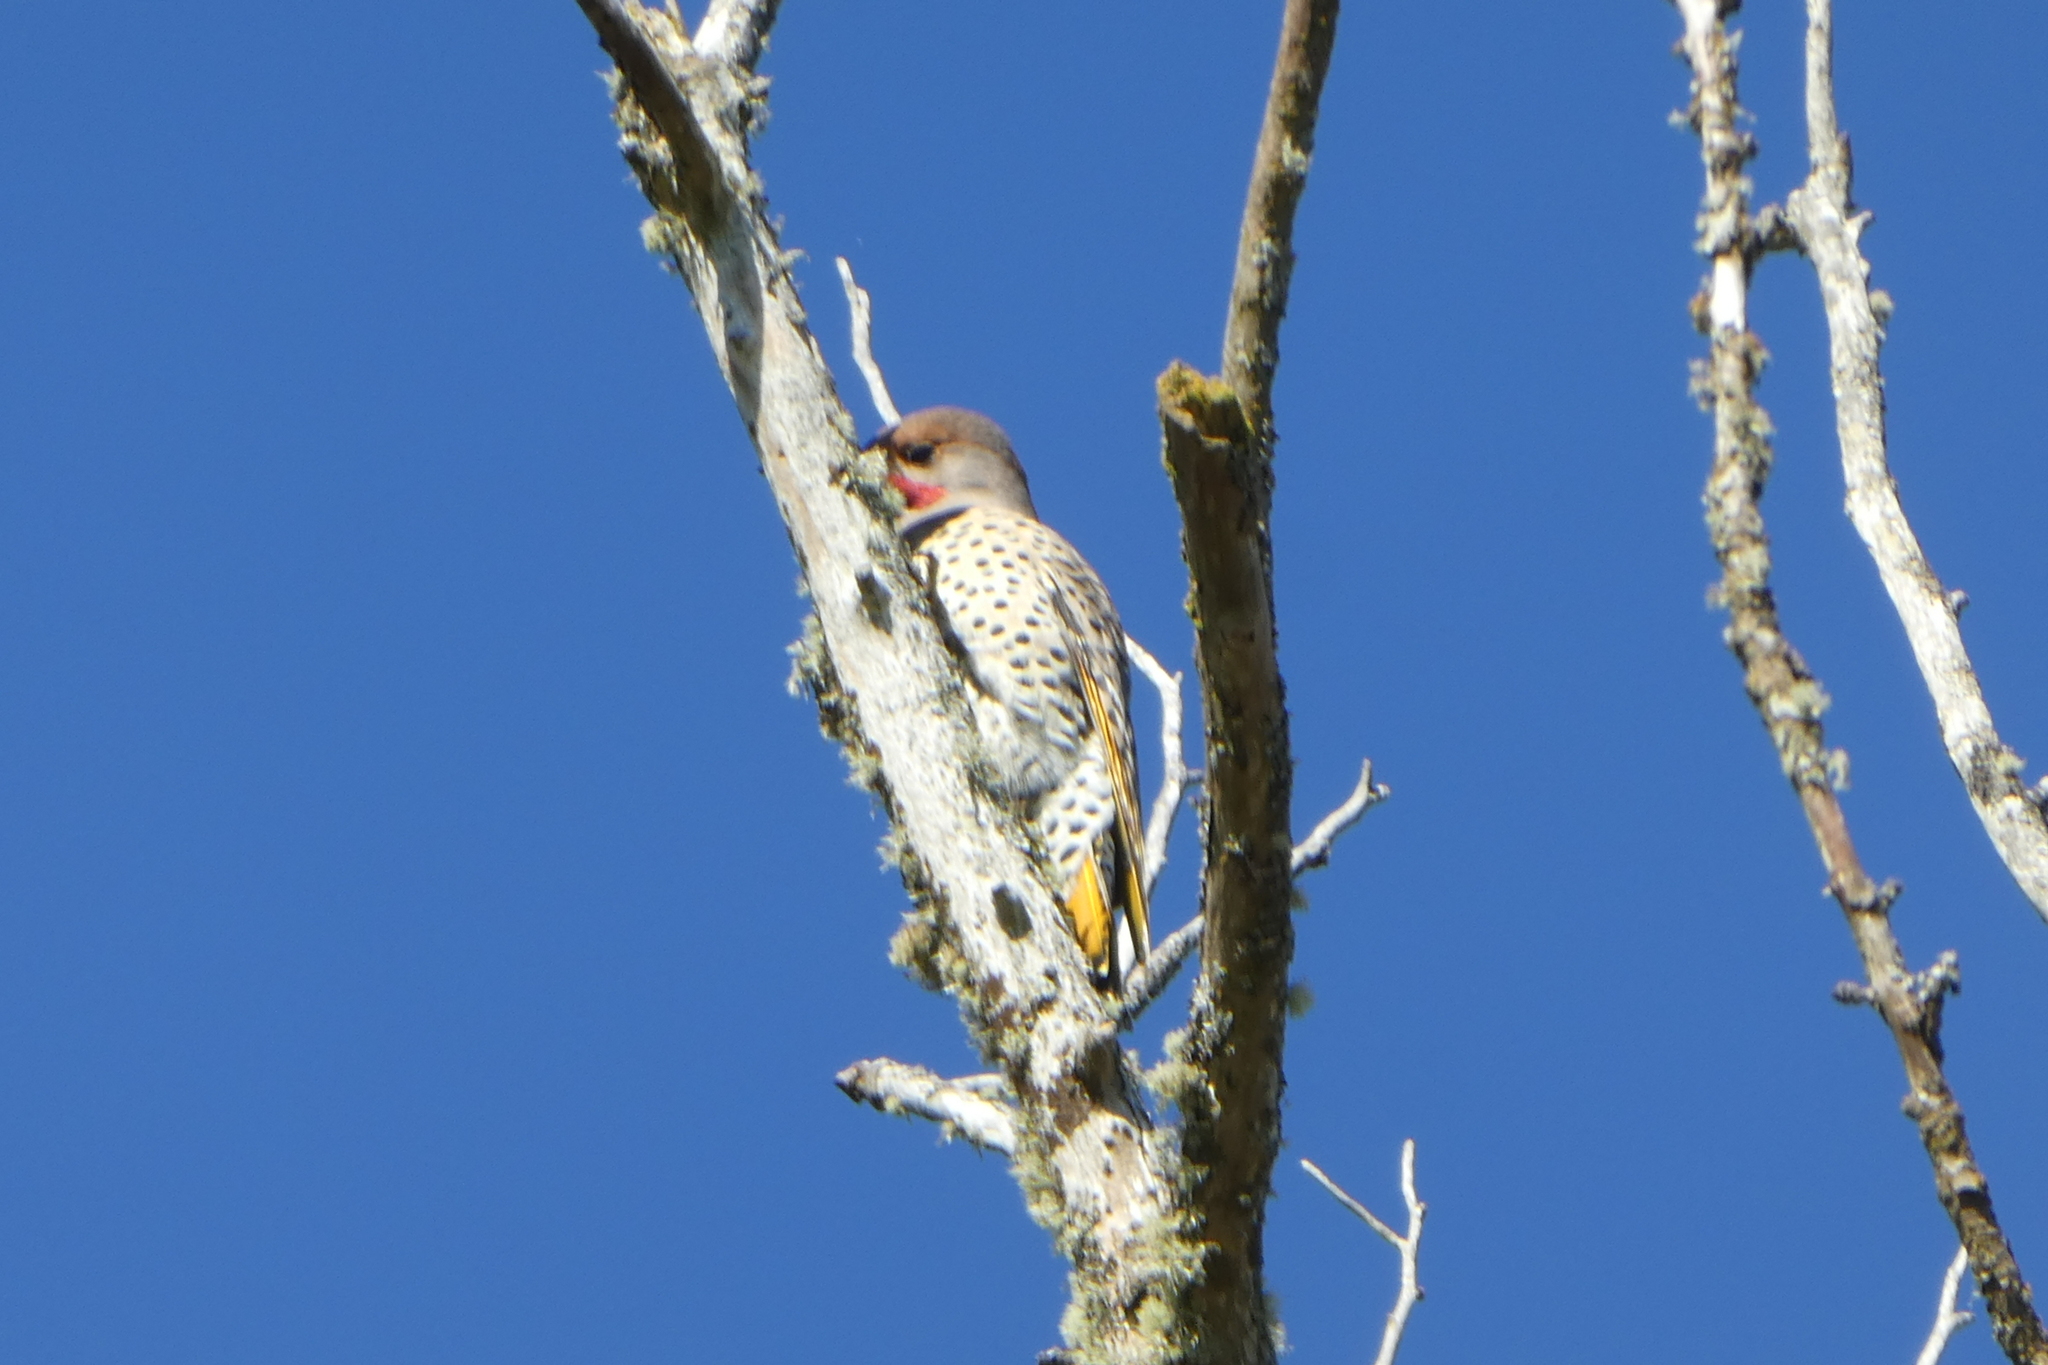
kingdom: Animalia
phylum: Chordata
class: Aves
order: Piciformes
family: Picidae
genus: Colaptes
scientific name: Colaptes auratus
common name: Northern flicker
